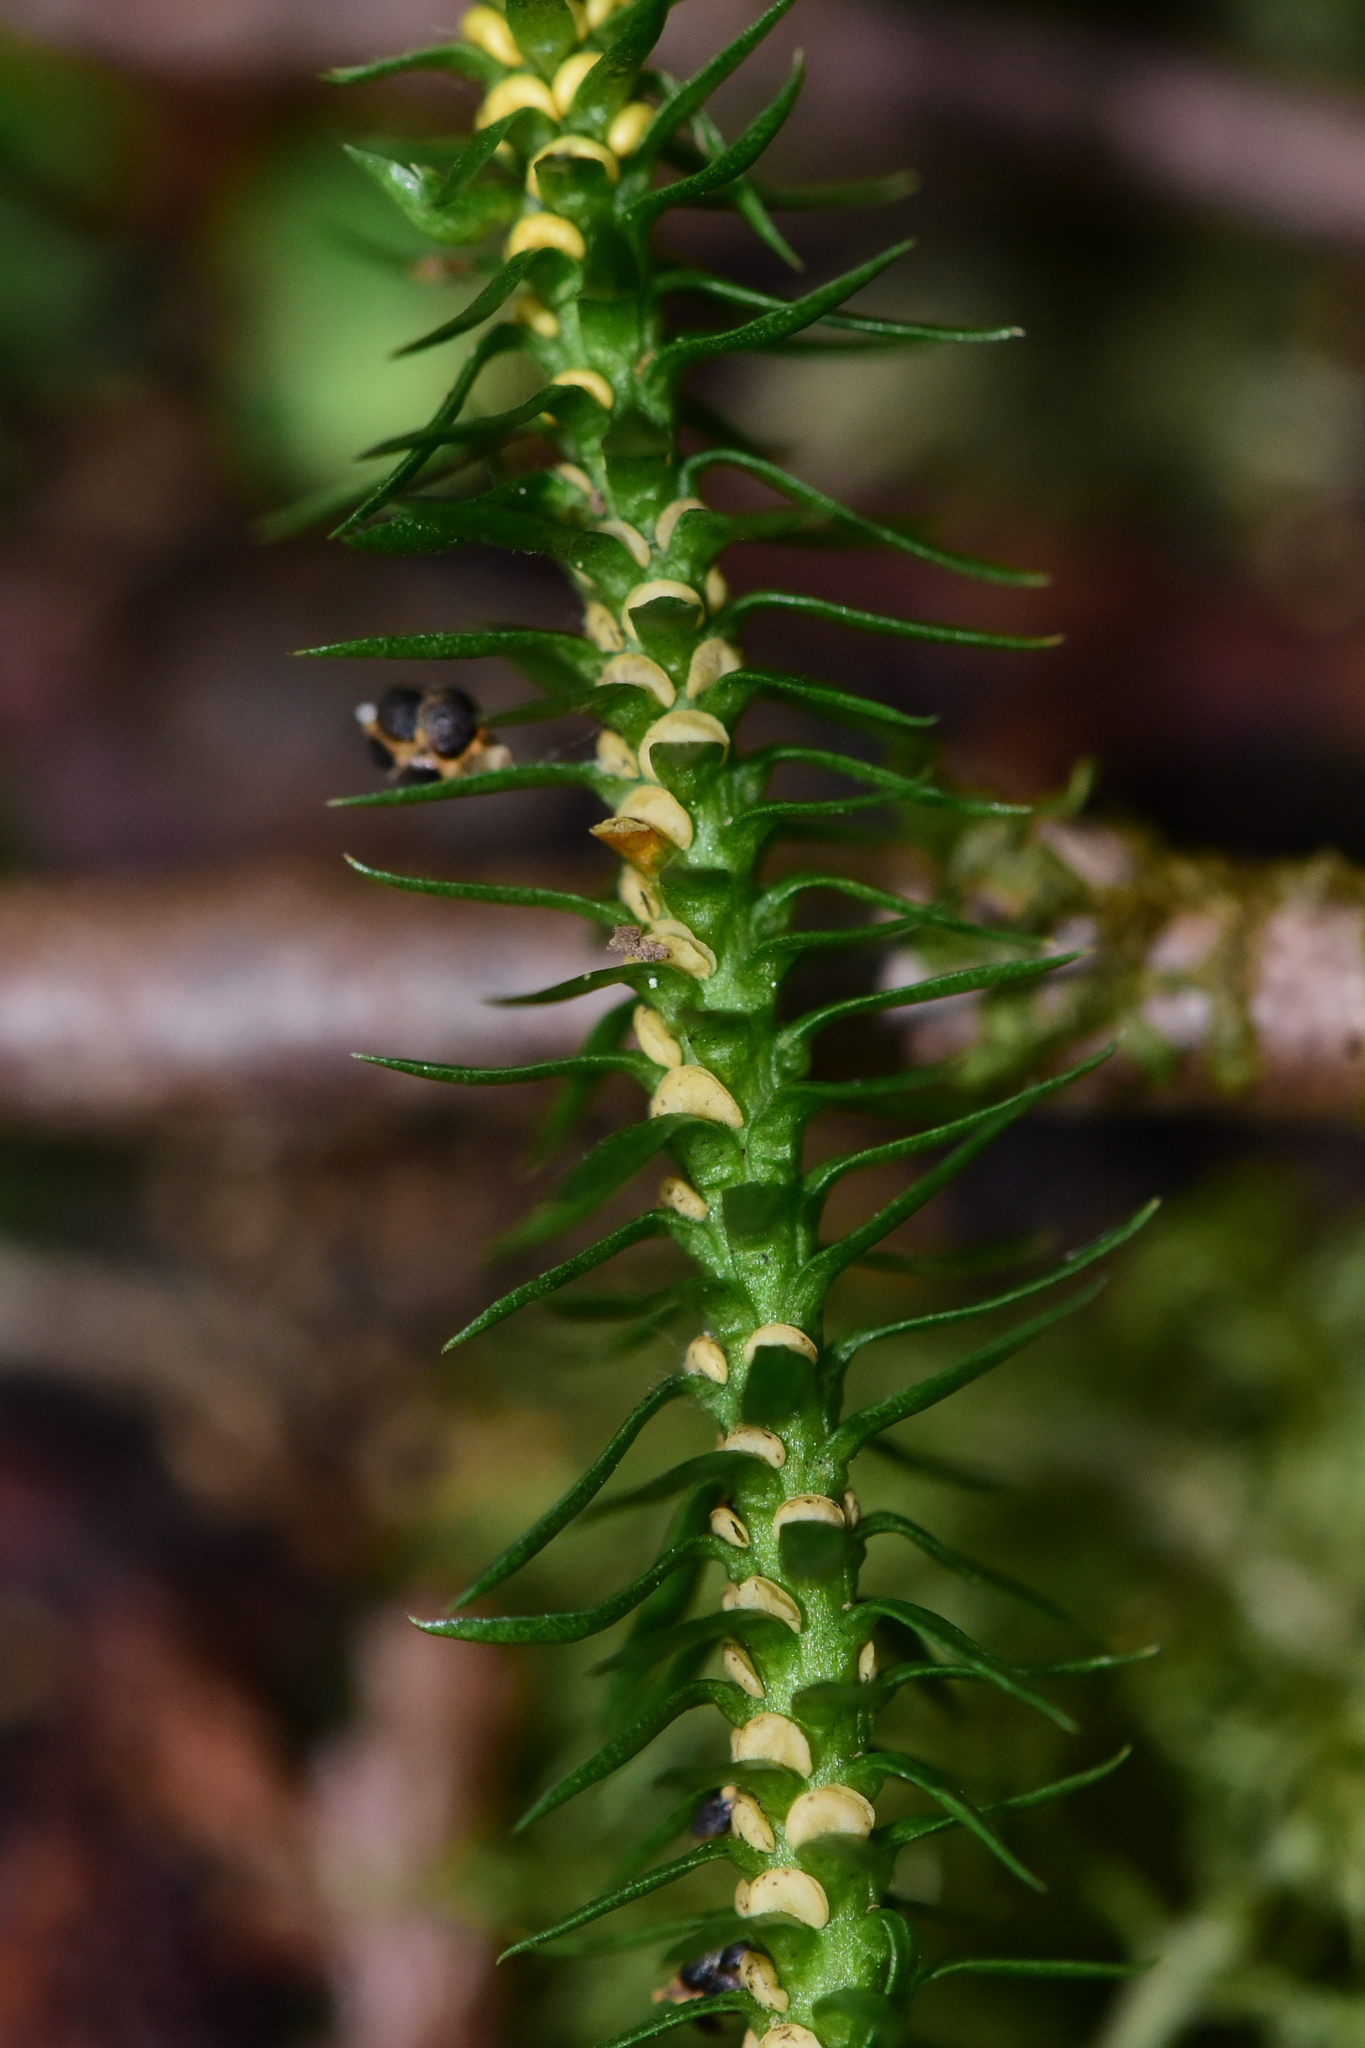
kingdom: Plantae
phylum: Tracheophyta
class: Lycopodiopsida
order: Lycopodiales
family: Lycopodiaceae
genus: Huperzia
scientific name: Huperzia occidentalis
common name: Western clubmoss
